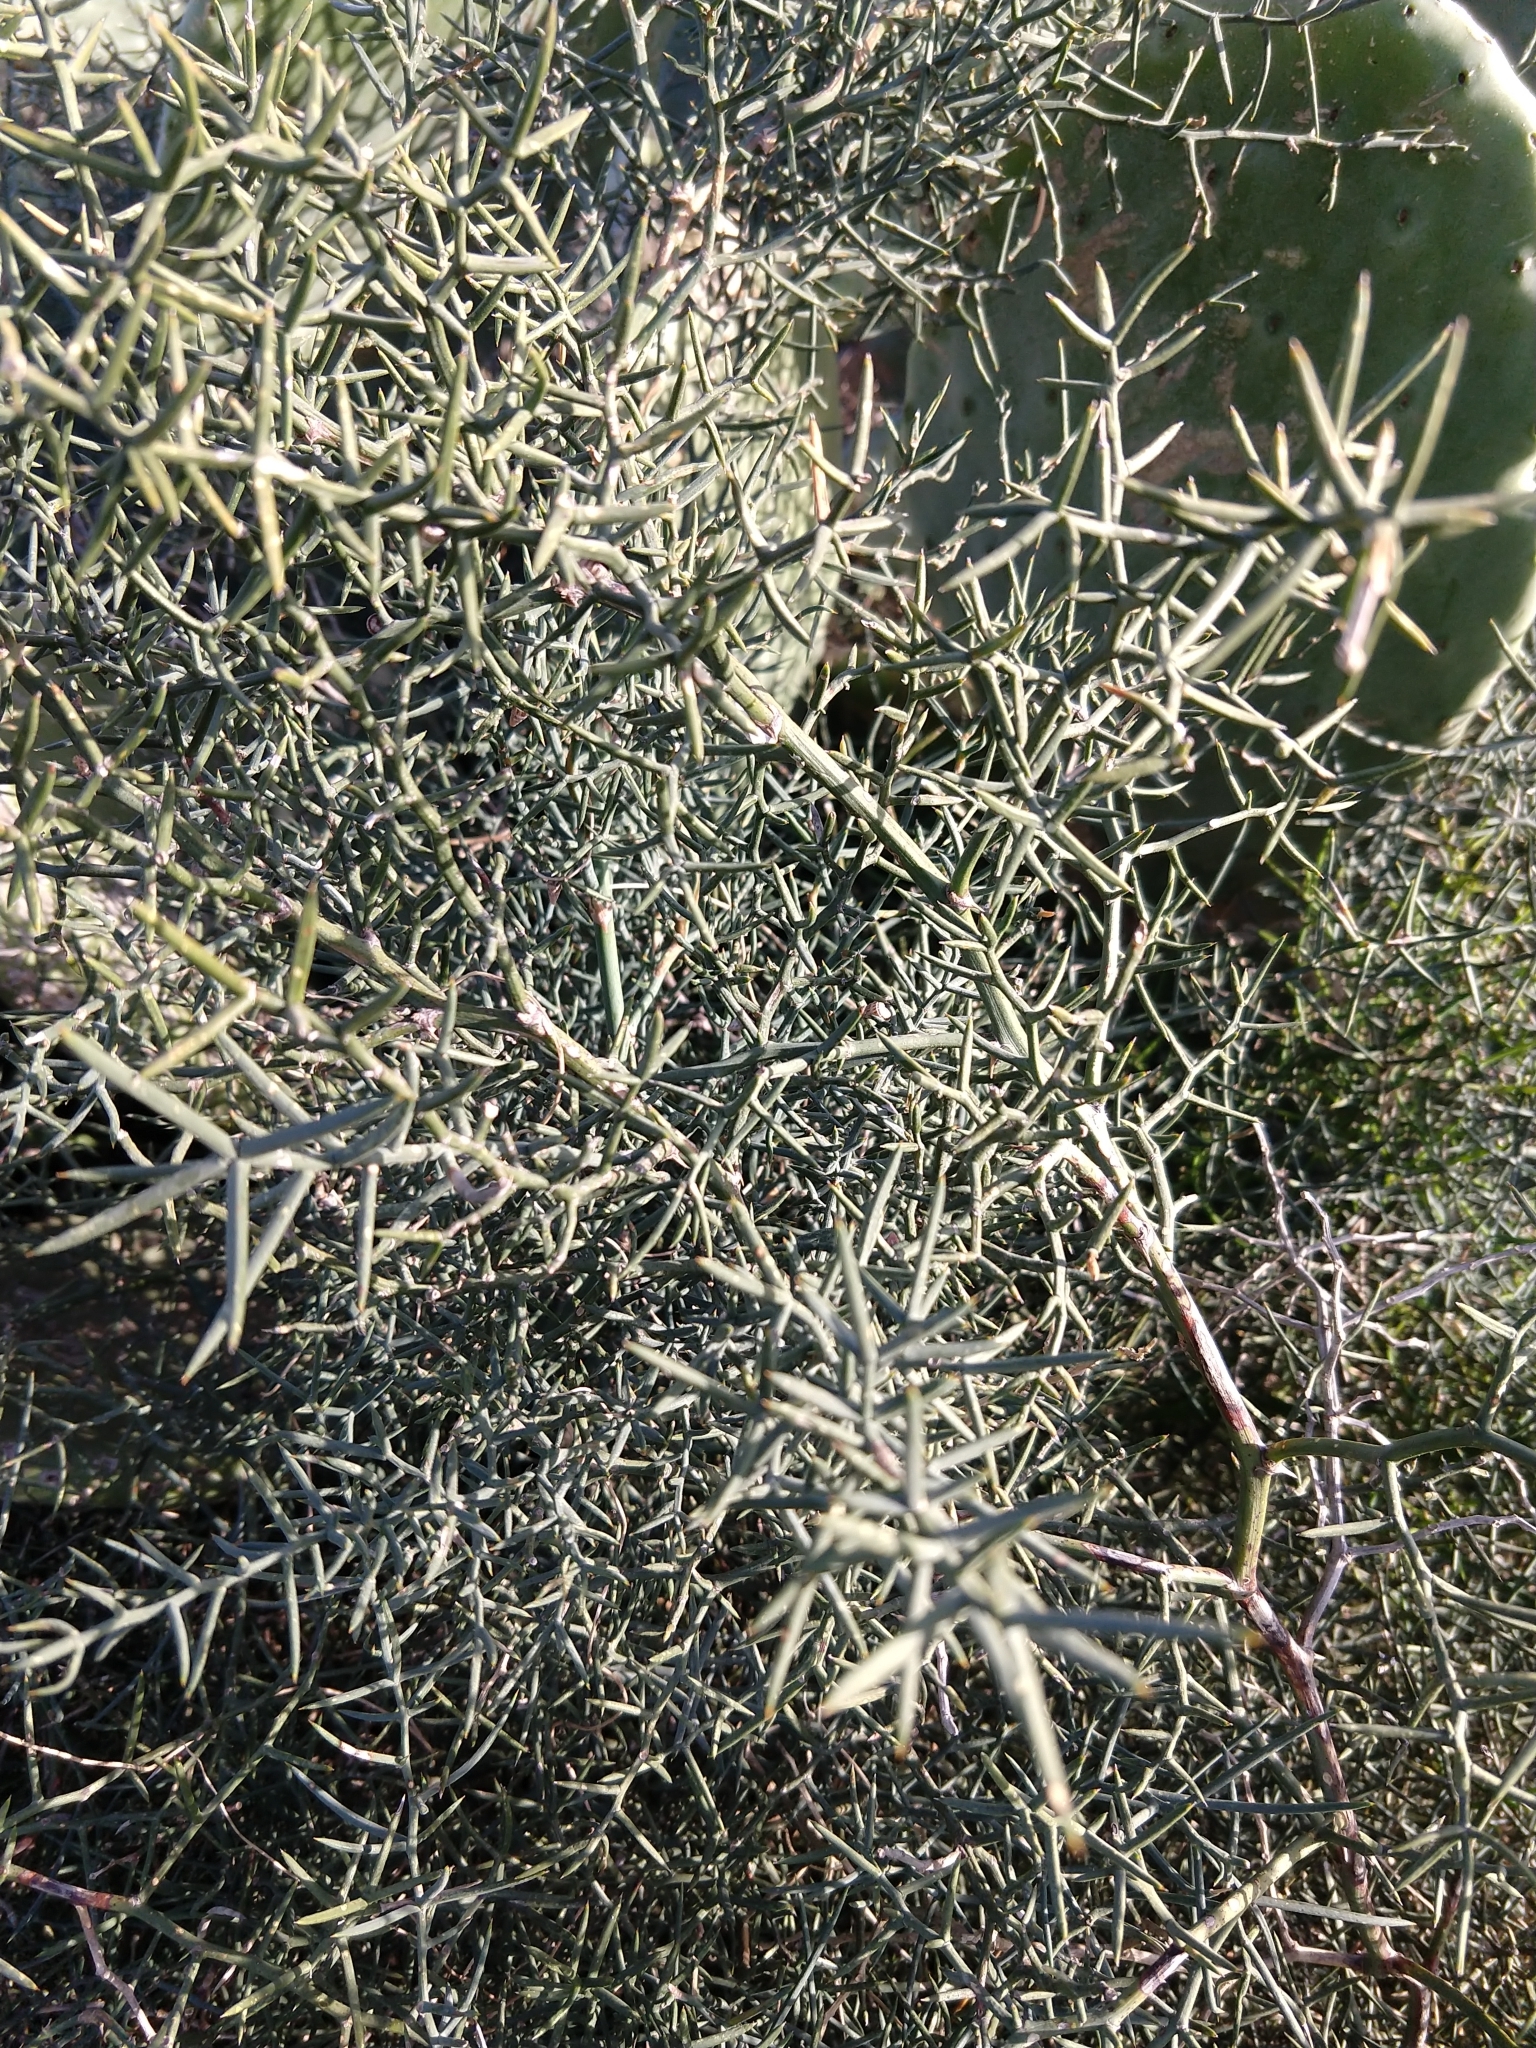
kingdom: Plantae
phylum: Tracheophyta
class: Liliopsida
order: Asparagales
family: Asparagaceae
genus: Asparagus
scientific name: Asparagus horridus
